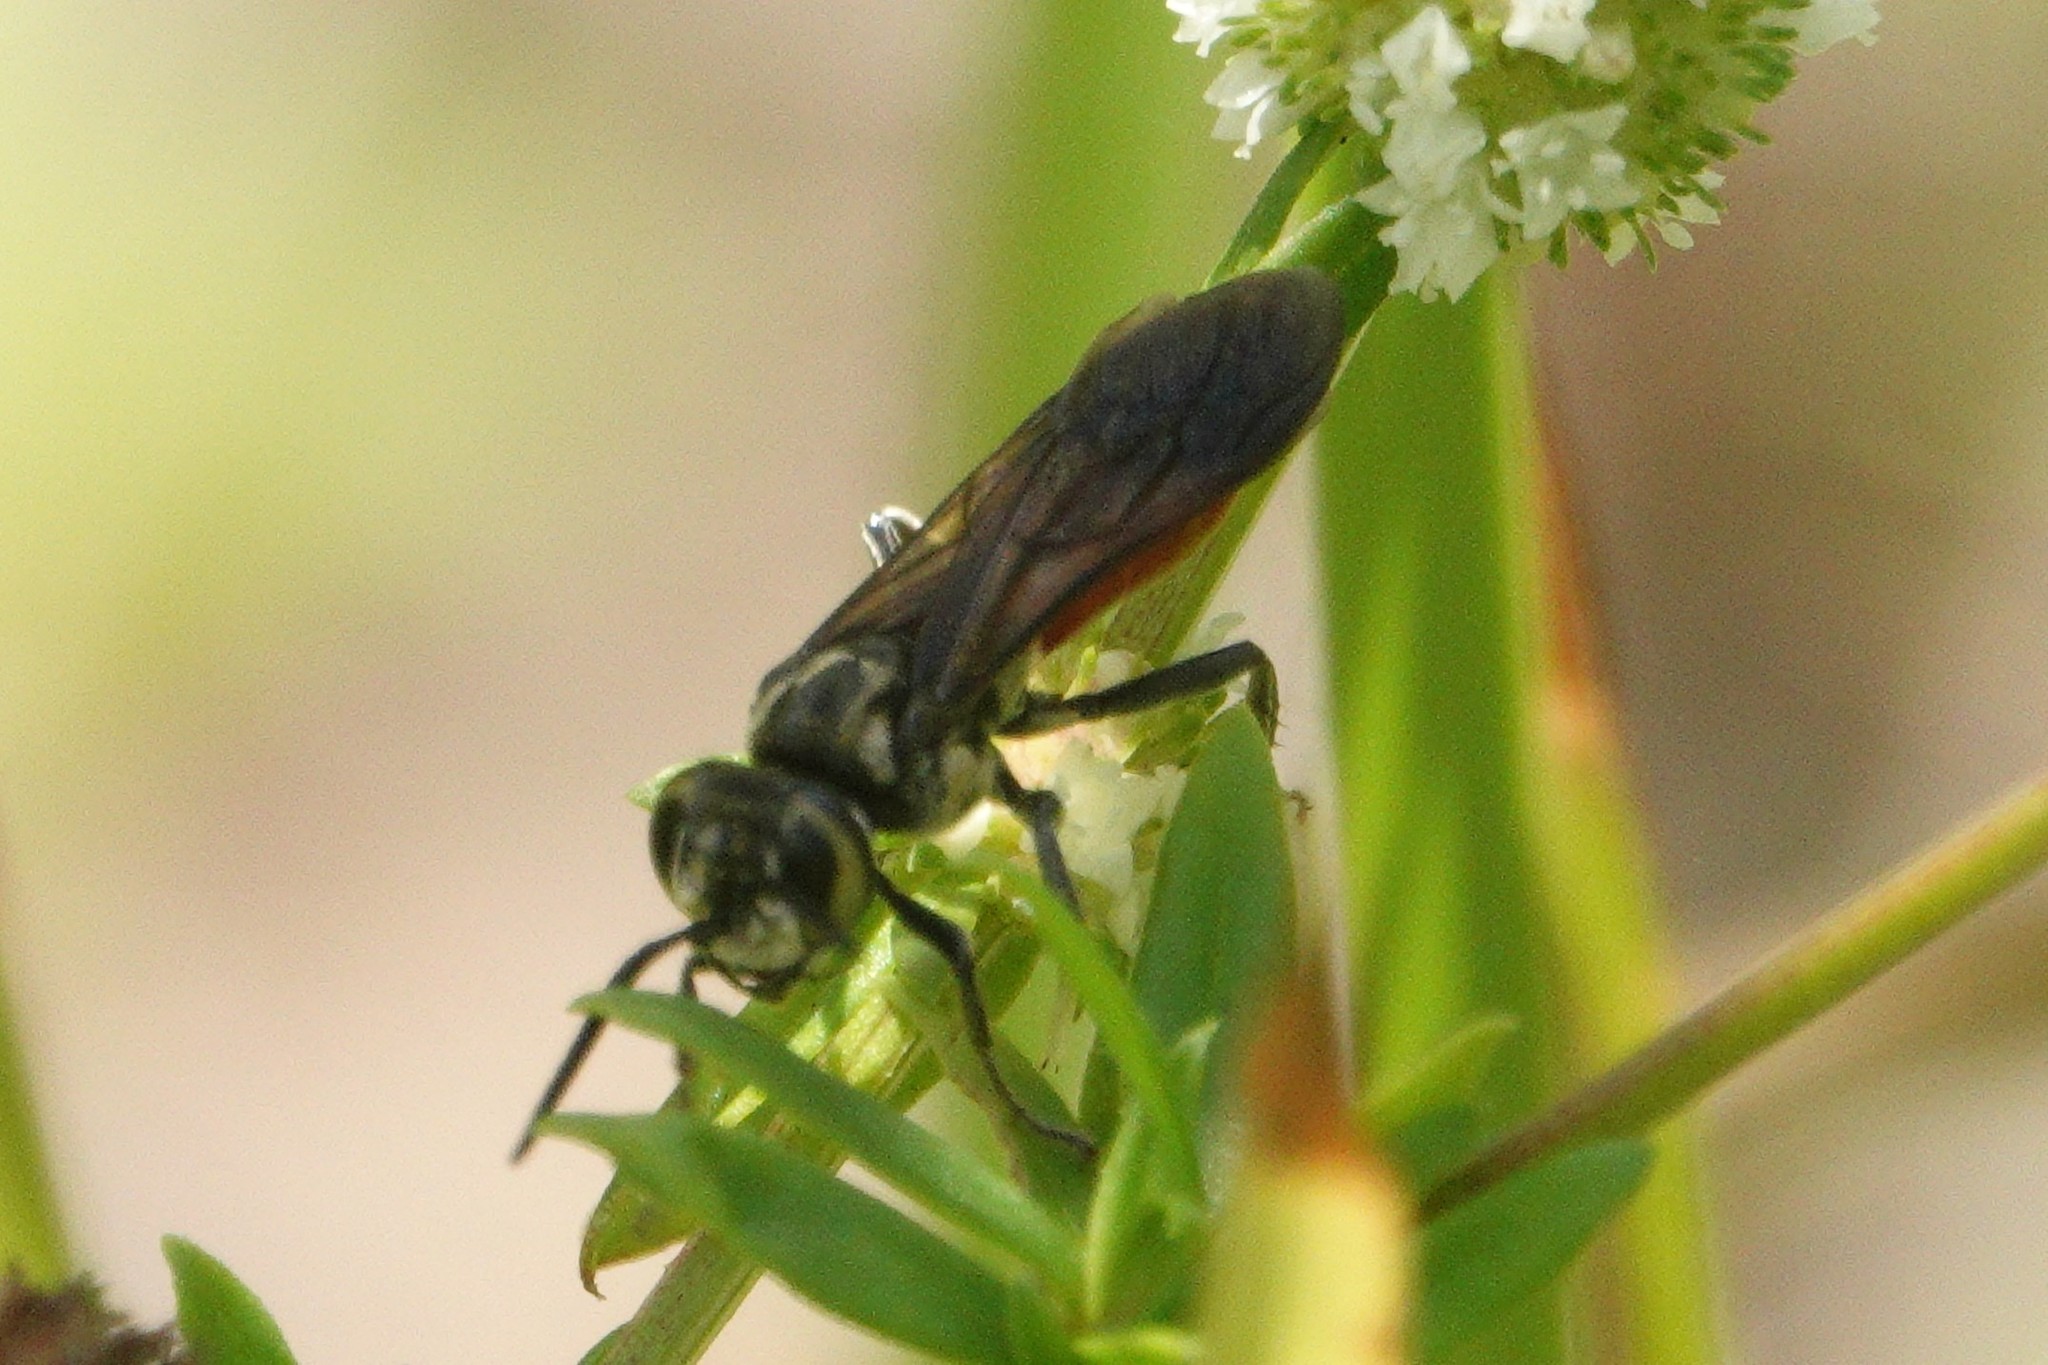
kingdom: Animalia
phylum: Arthropoda
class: Insecta
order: Hymenoptera
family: Crabronidae
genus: Larra
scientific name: Larra bicolor
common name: Wasp
